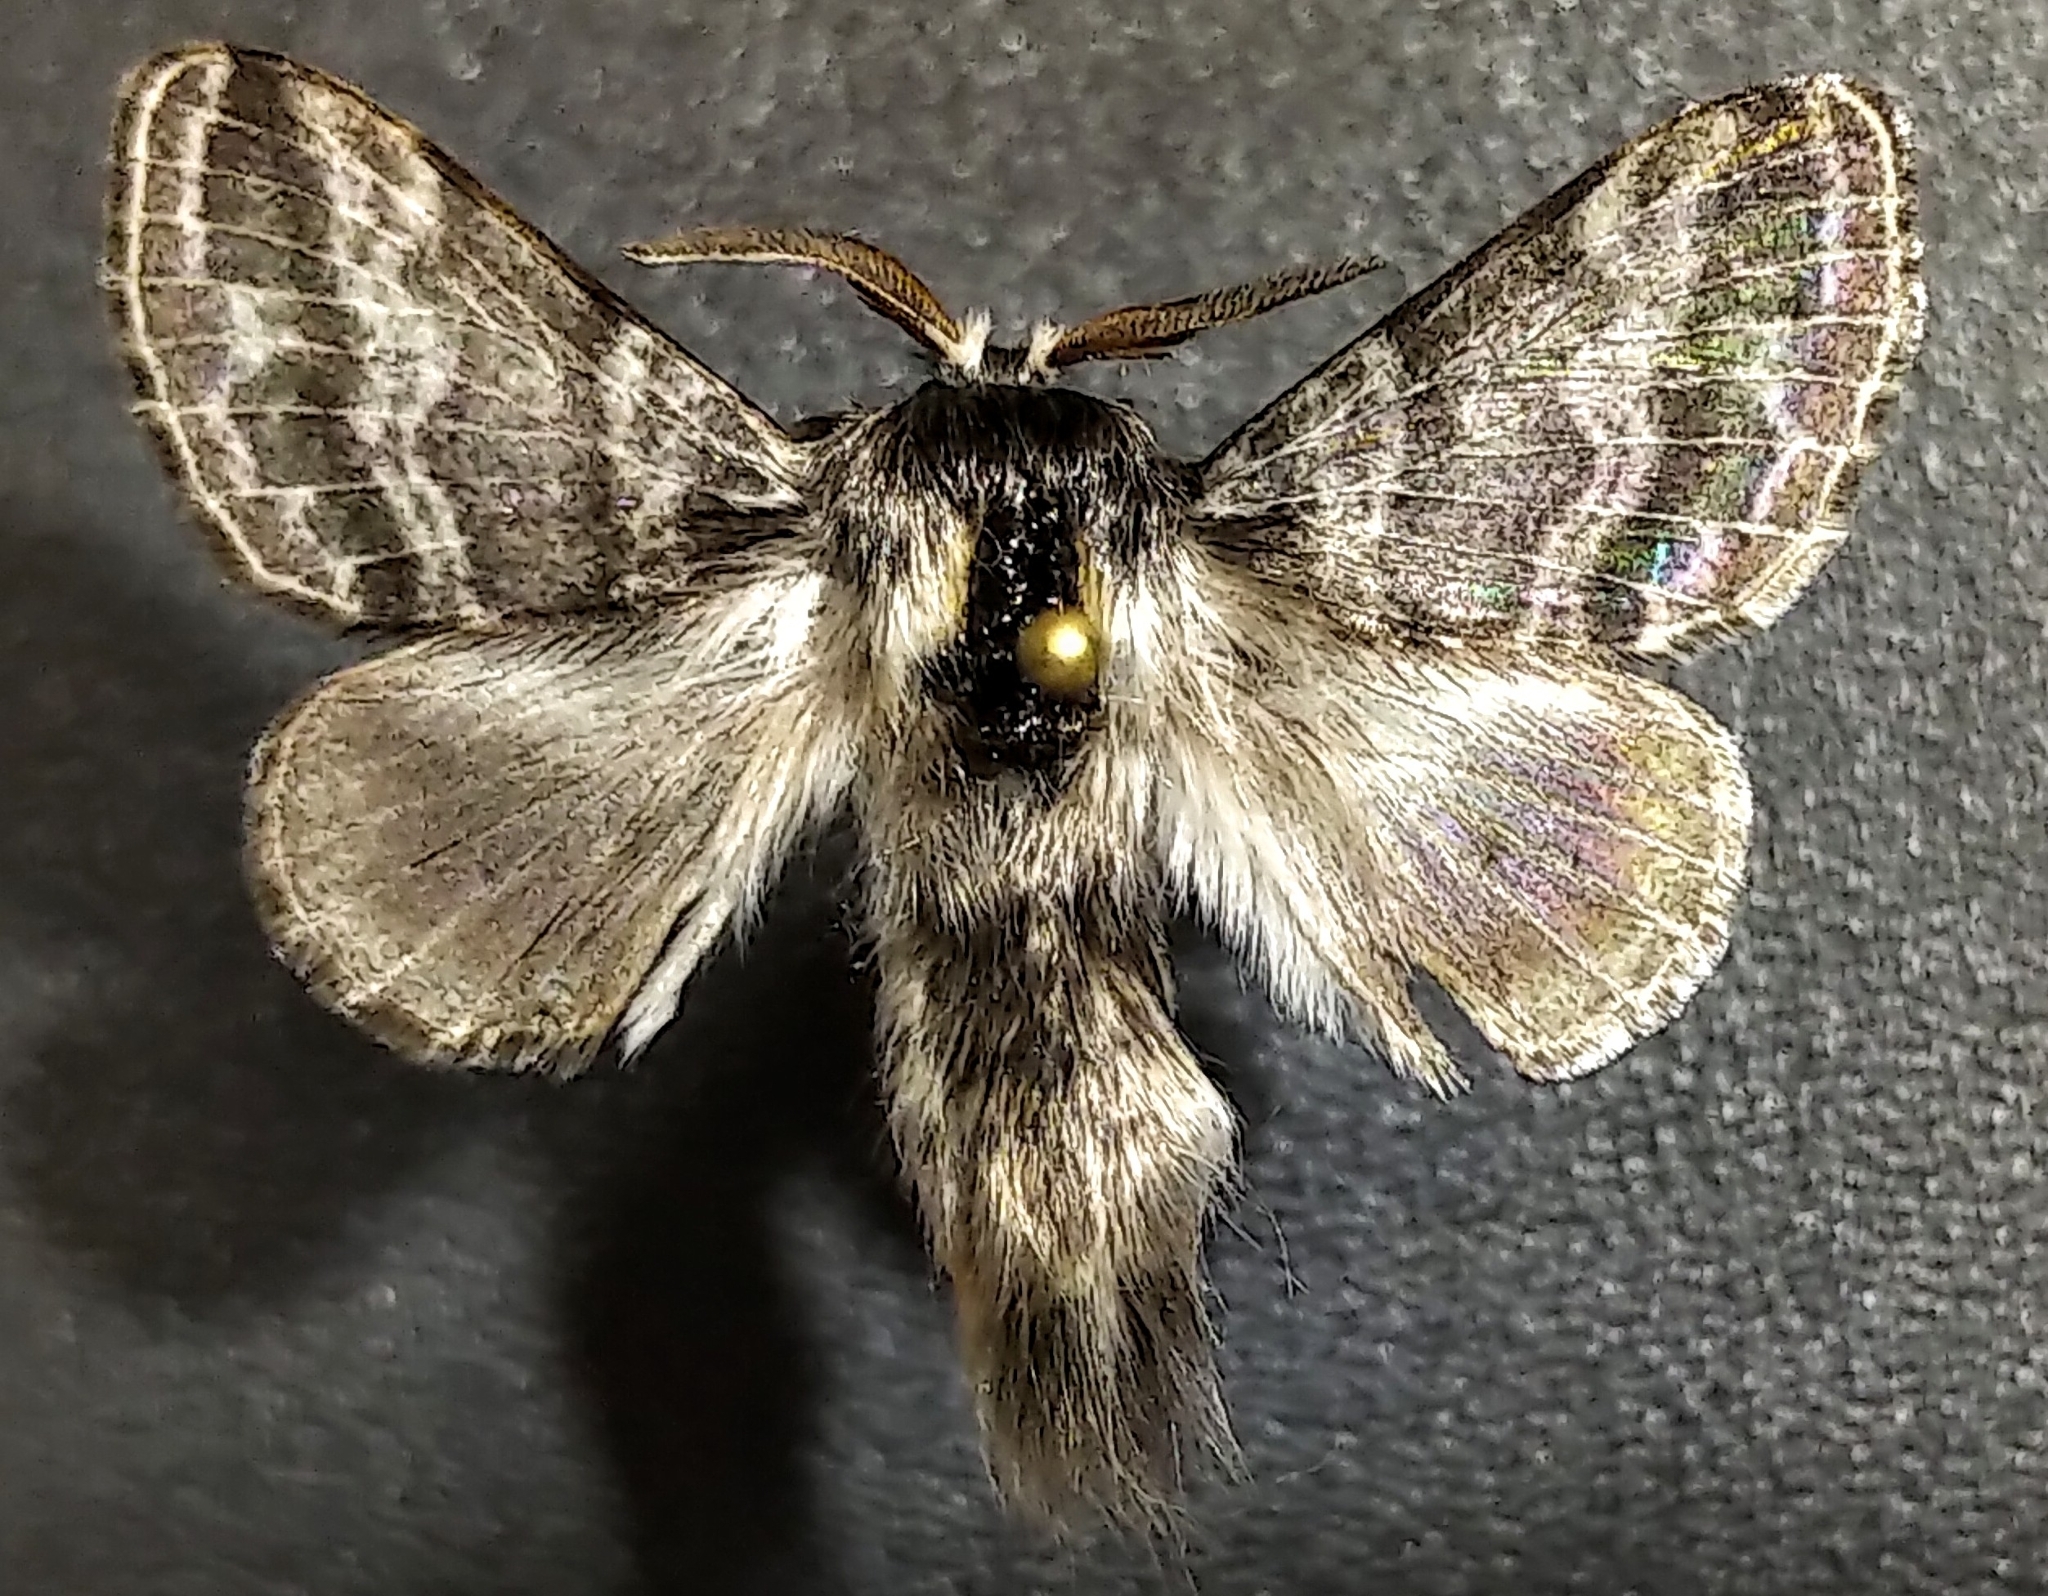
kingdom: Animalia
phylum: Arthropoda
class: Insecta
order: Lepidoptera
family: Lasiocampidae
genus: Tolype
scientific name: Tolype dayi
